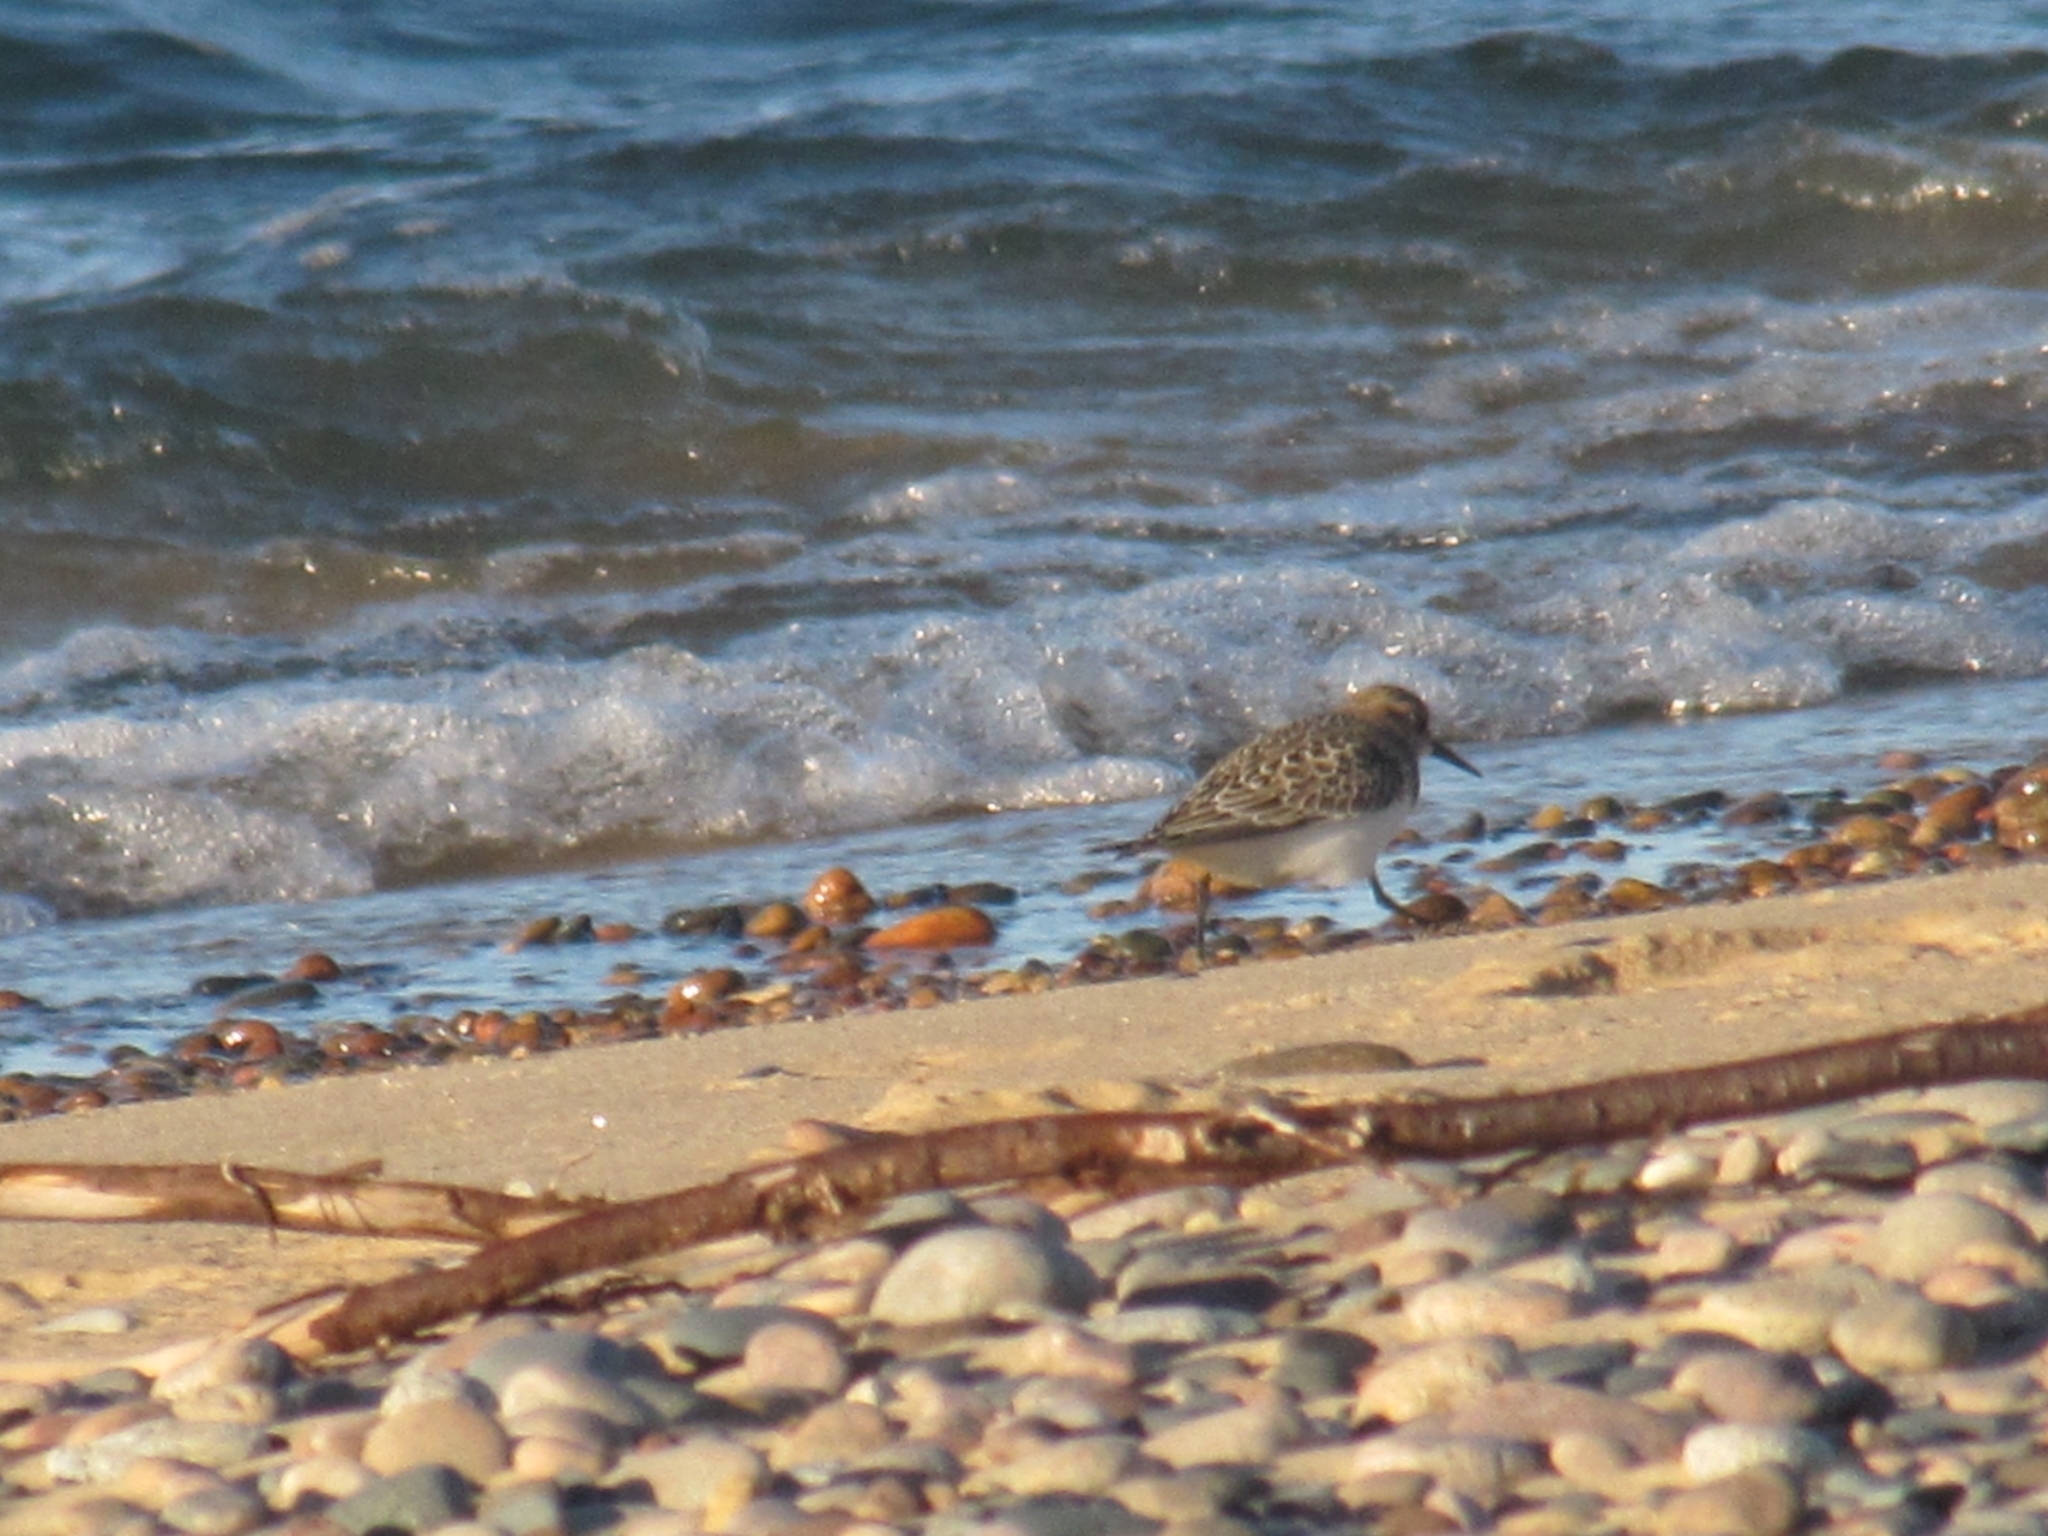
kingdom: Animalia
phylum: Chordata
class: Aves
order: Charadriiformes
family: Scolopacidae
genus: Calidris
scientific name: Calidris bairdii
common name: Baird's sandpiper
